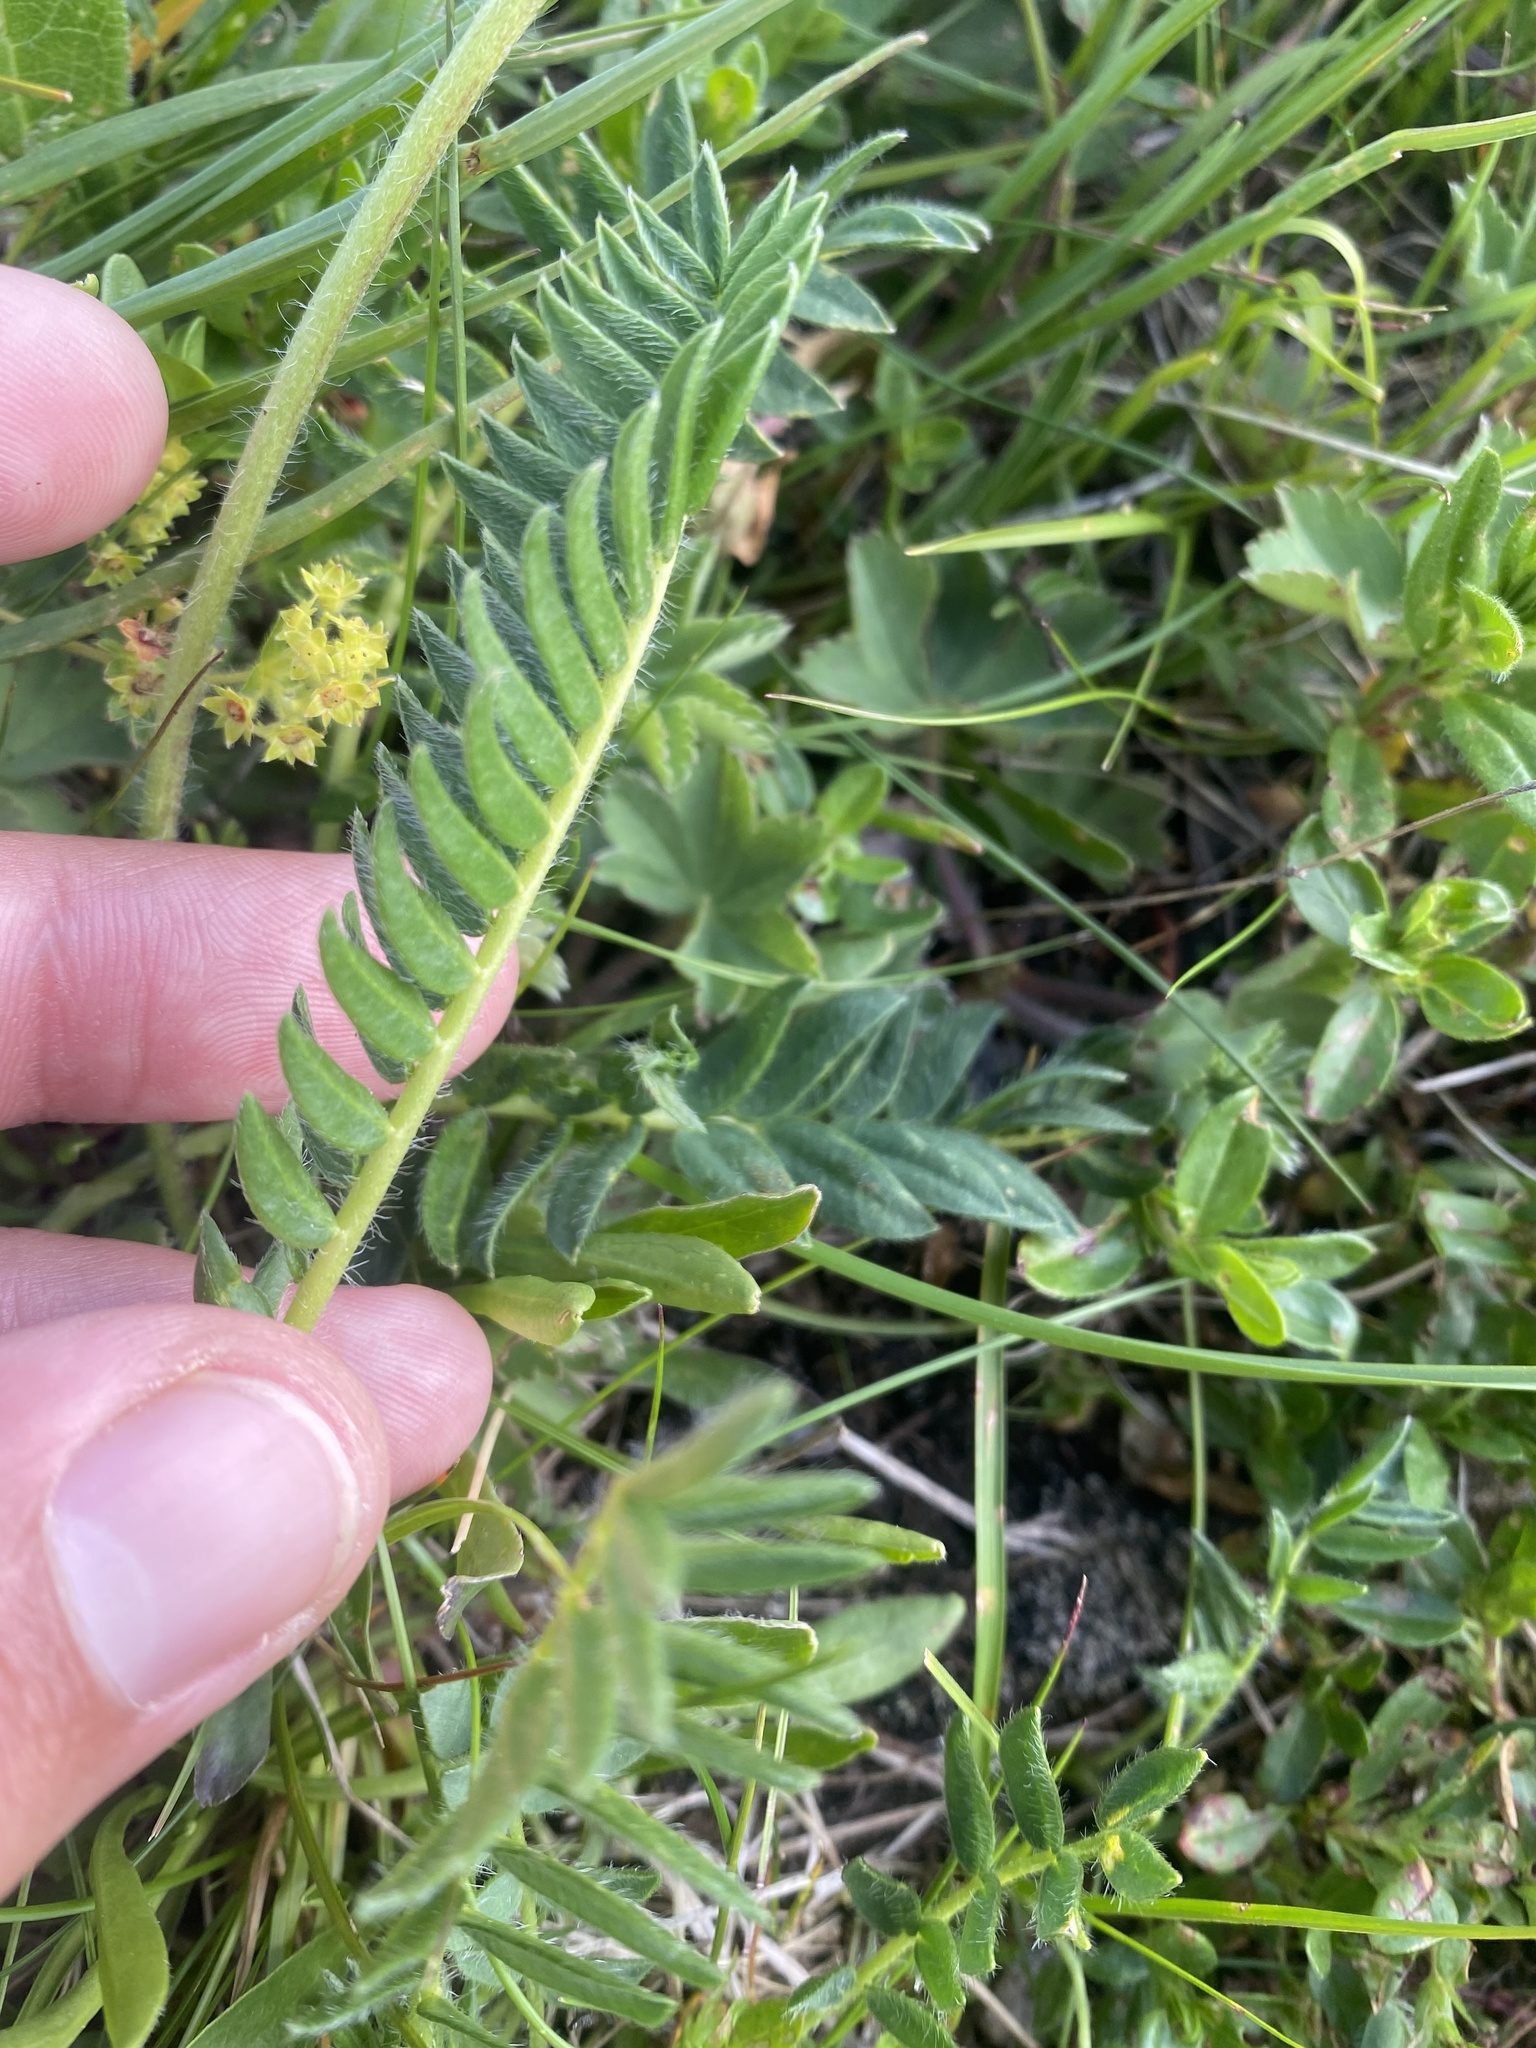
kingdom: Plantae
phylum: Tracheophyta
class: Magnoliopsida
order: Fabales
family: Fabaceae
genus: Oxytropis
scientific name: Oxytropis lazica
